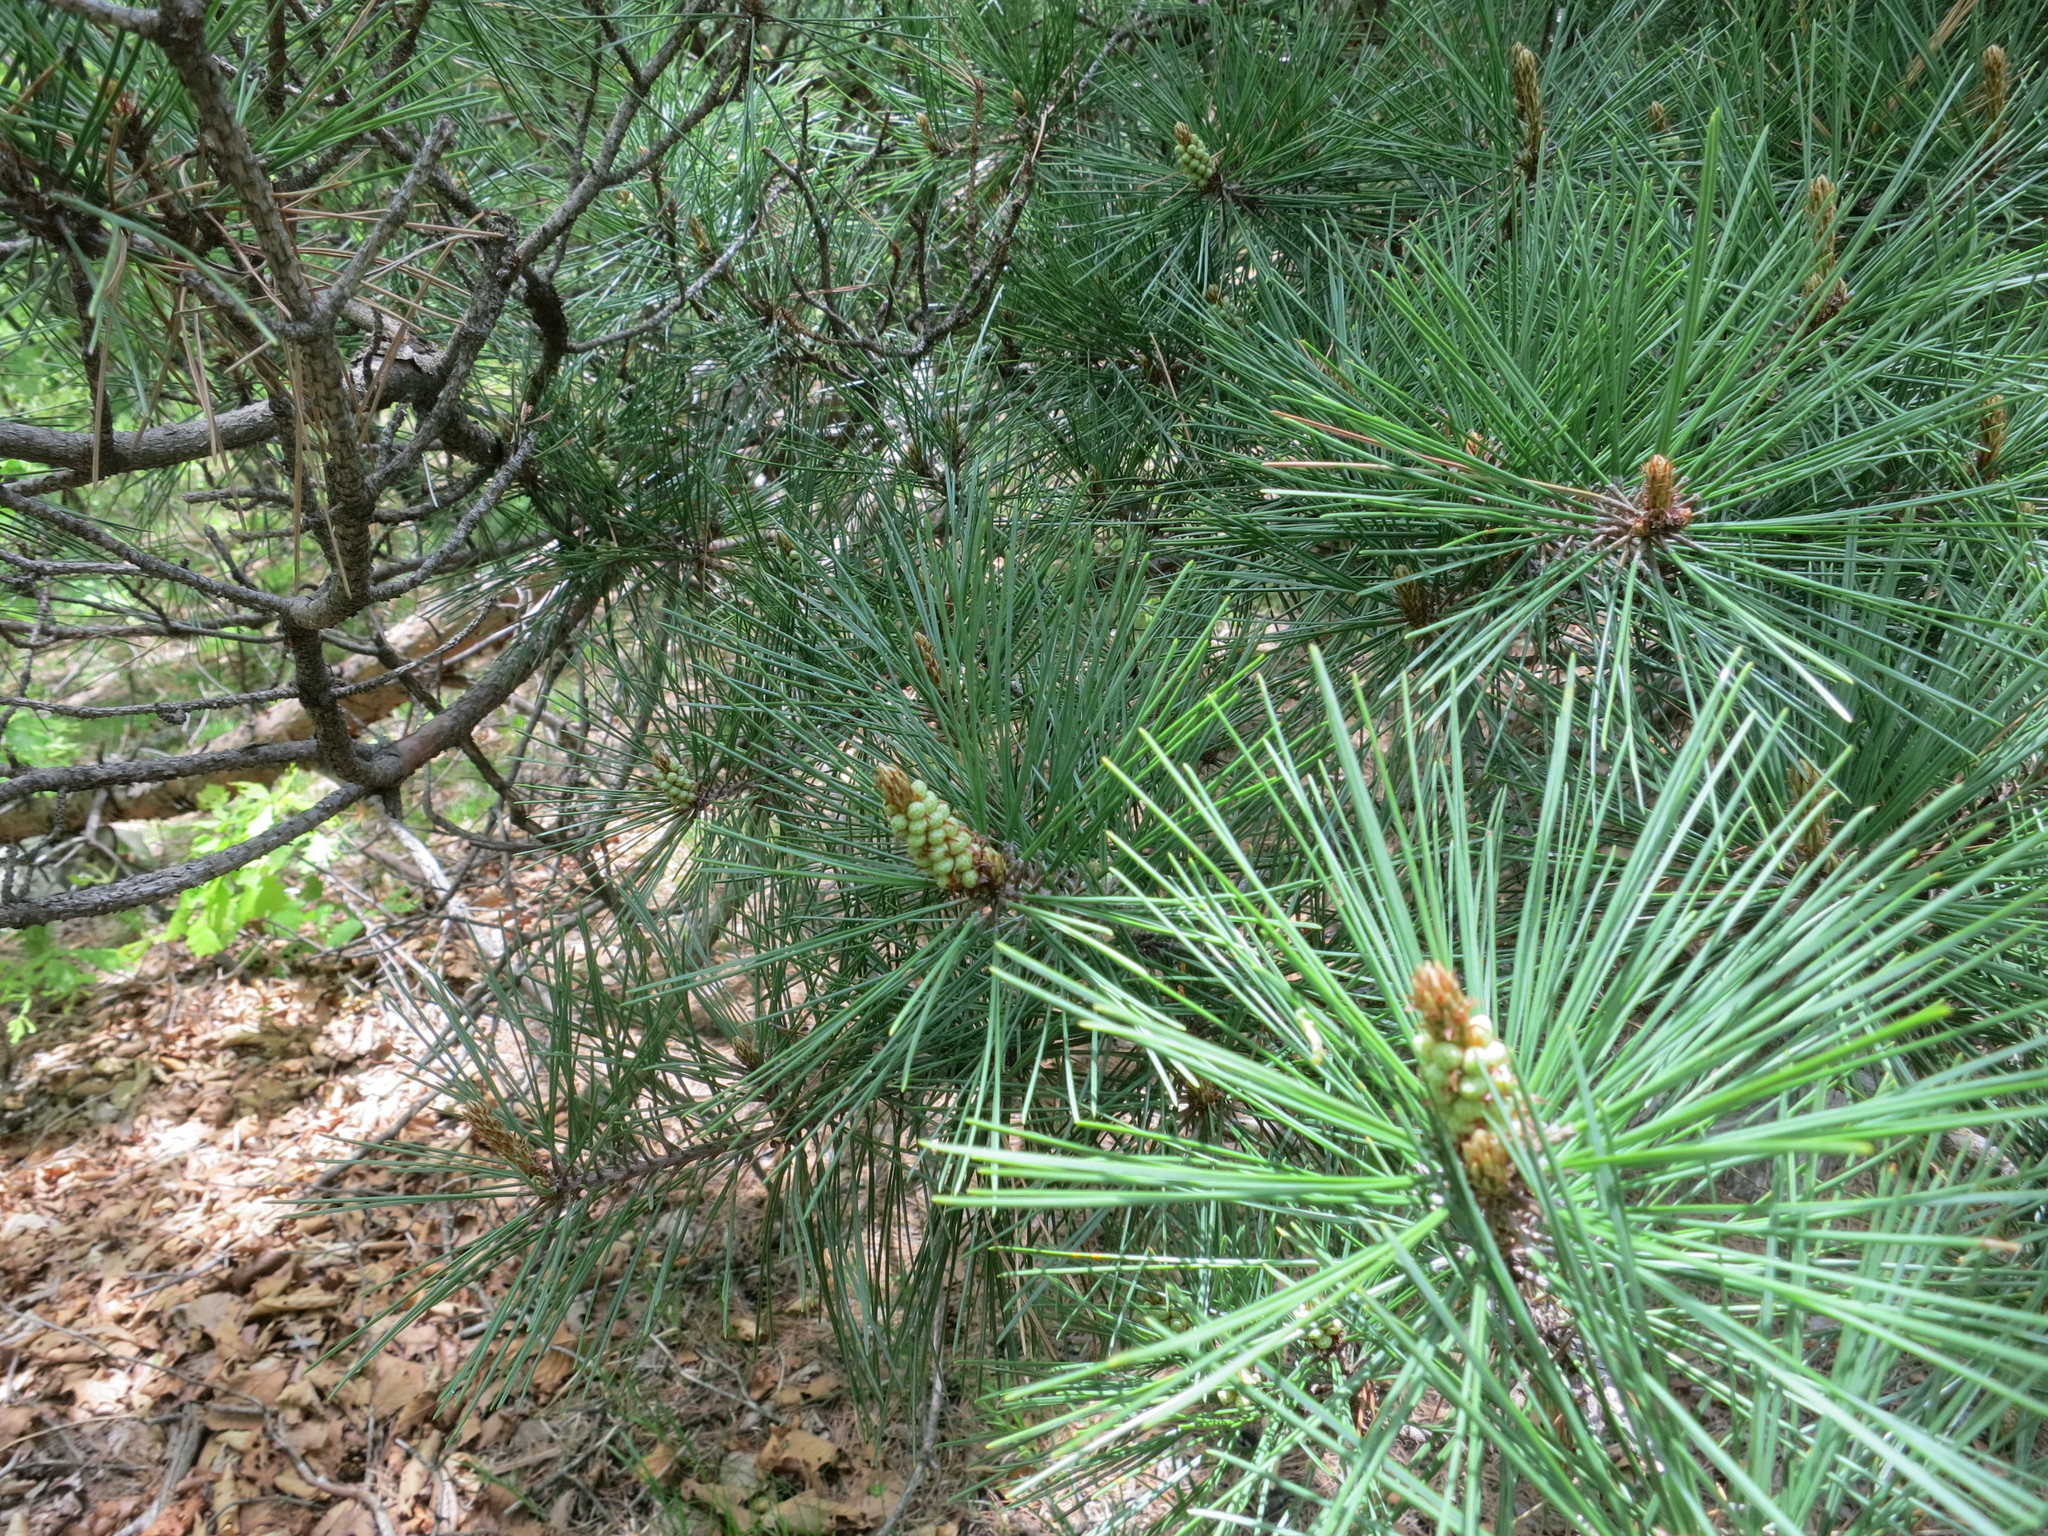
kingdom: Plantae
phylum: Tracheophyta
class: Pinopsida
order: Pinales
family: Pinaceae
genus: Pinus
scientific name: Pinus densiflora
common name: Japanese red pine
